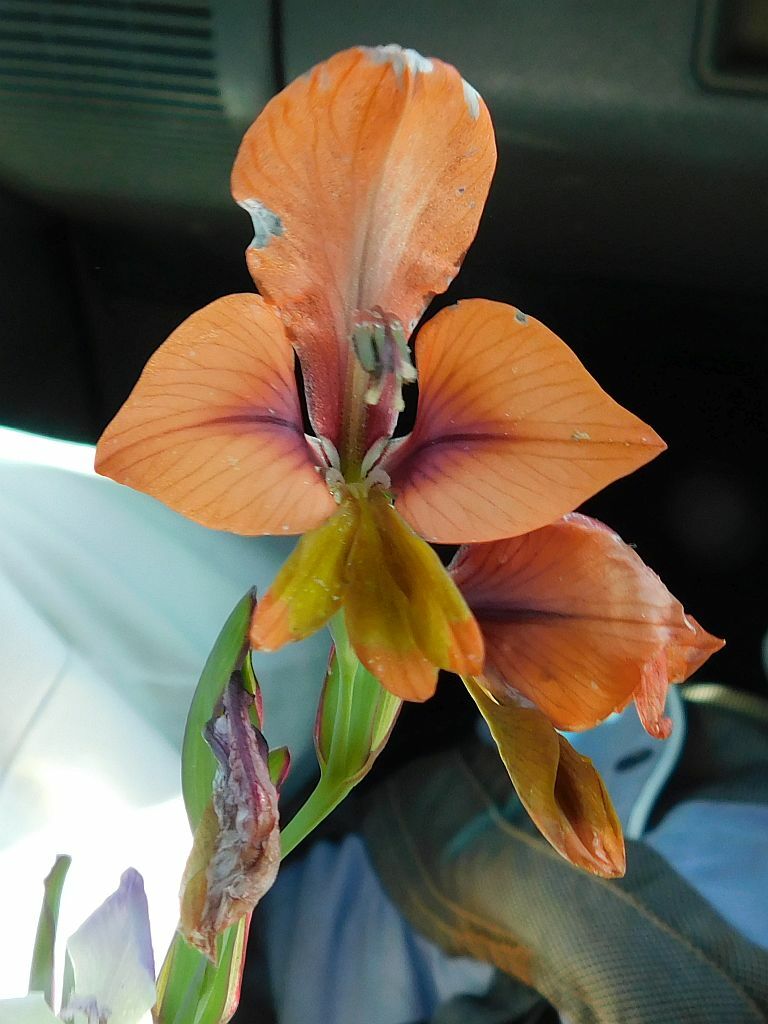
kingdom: Plantae
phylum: Tracheophyta
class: Liliopsida
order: Asparagales
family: Iridaceae
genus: Gladiolus
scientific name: Gladiolus alatus
